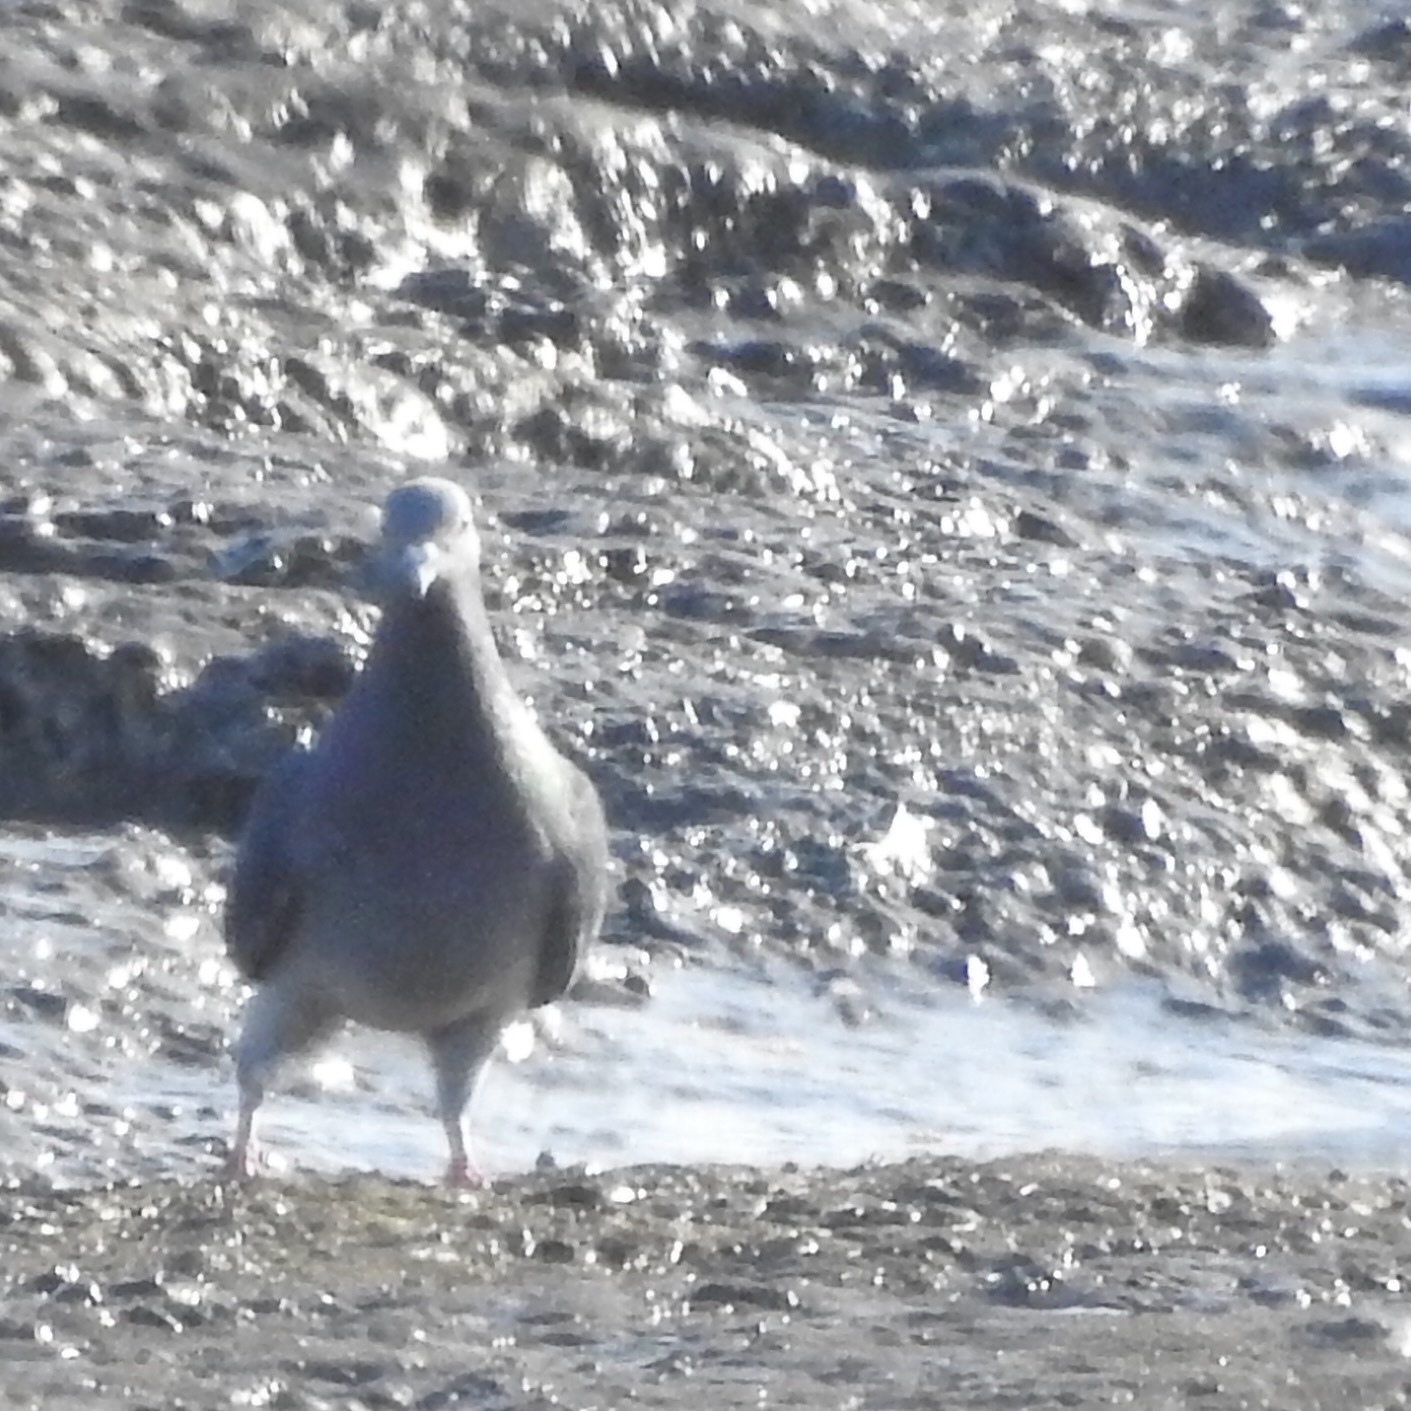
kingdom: Animalia
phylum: Chordata
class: Aves
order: Columbiformes
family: Columbidae
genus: Columba
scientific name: Columba livia
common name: Rock pigeon
